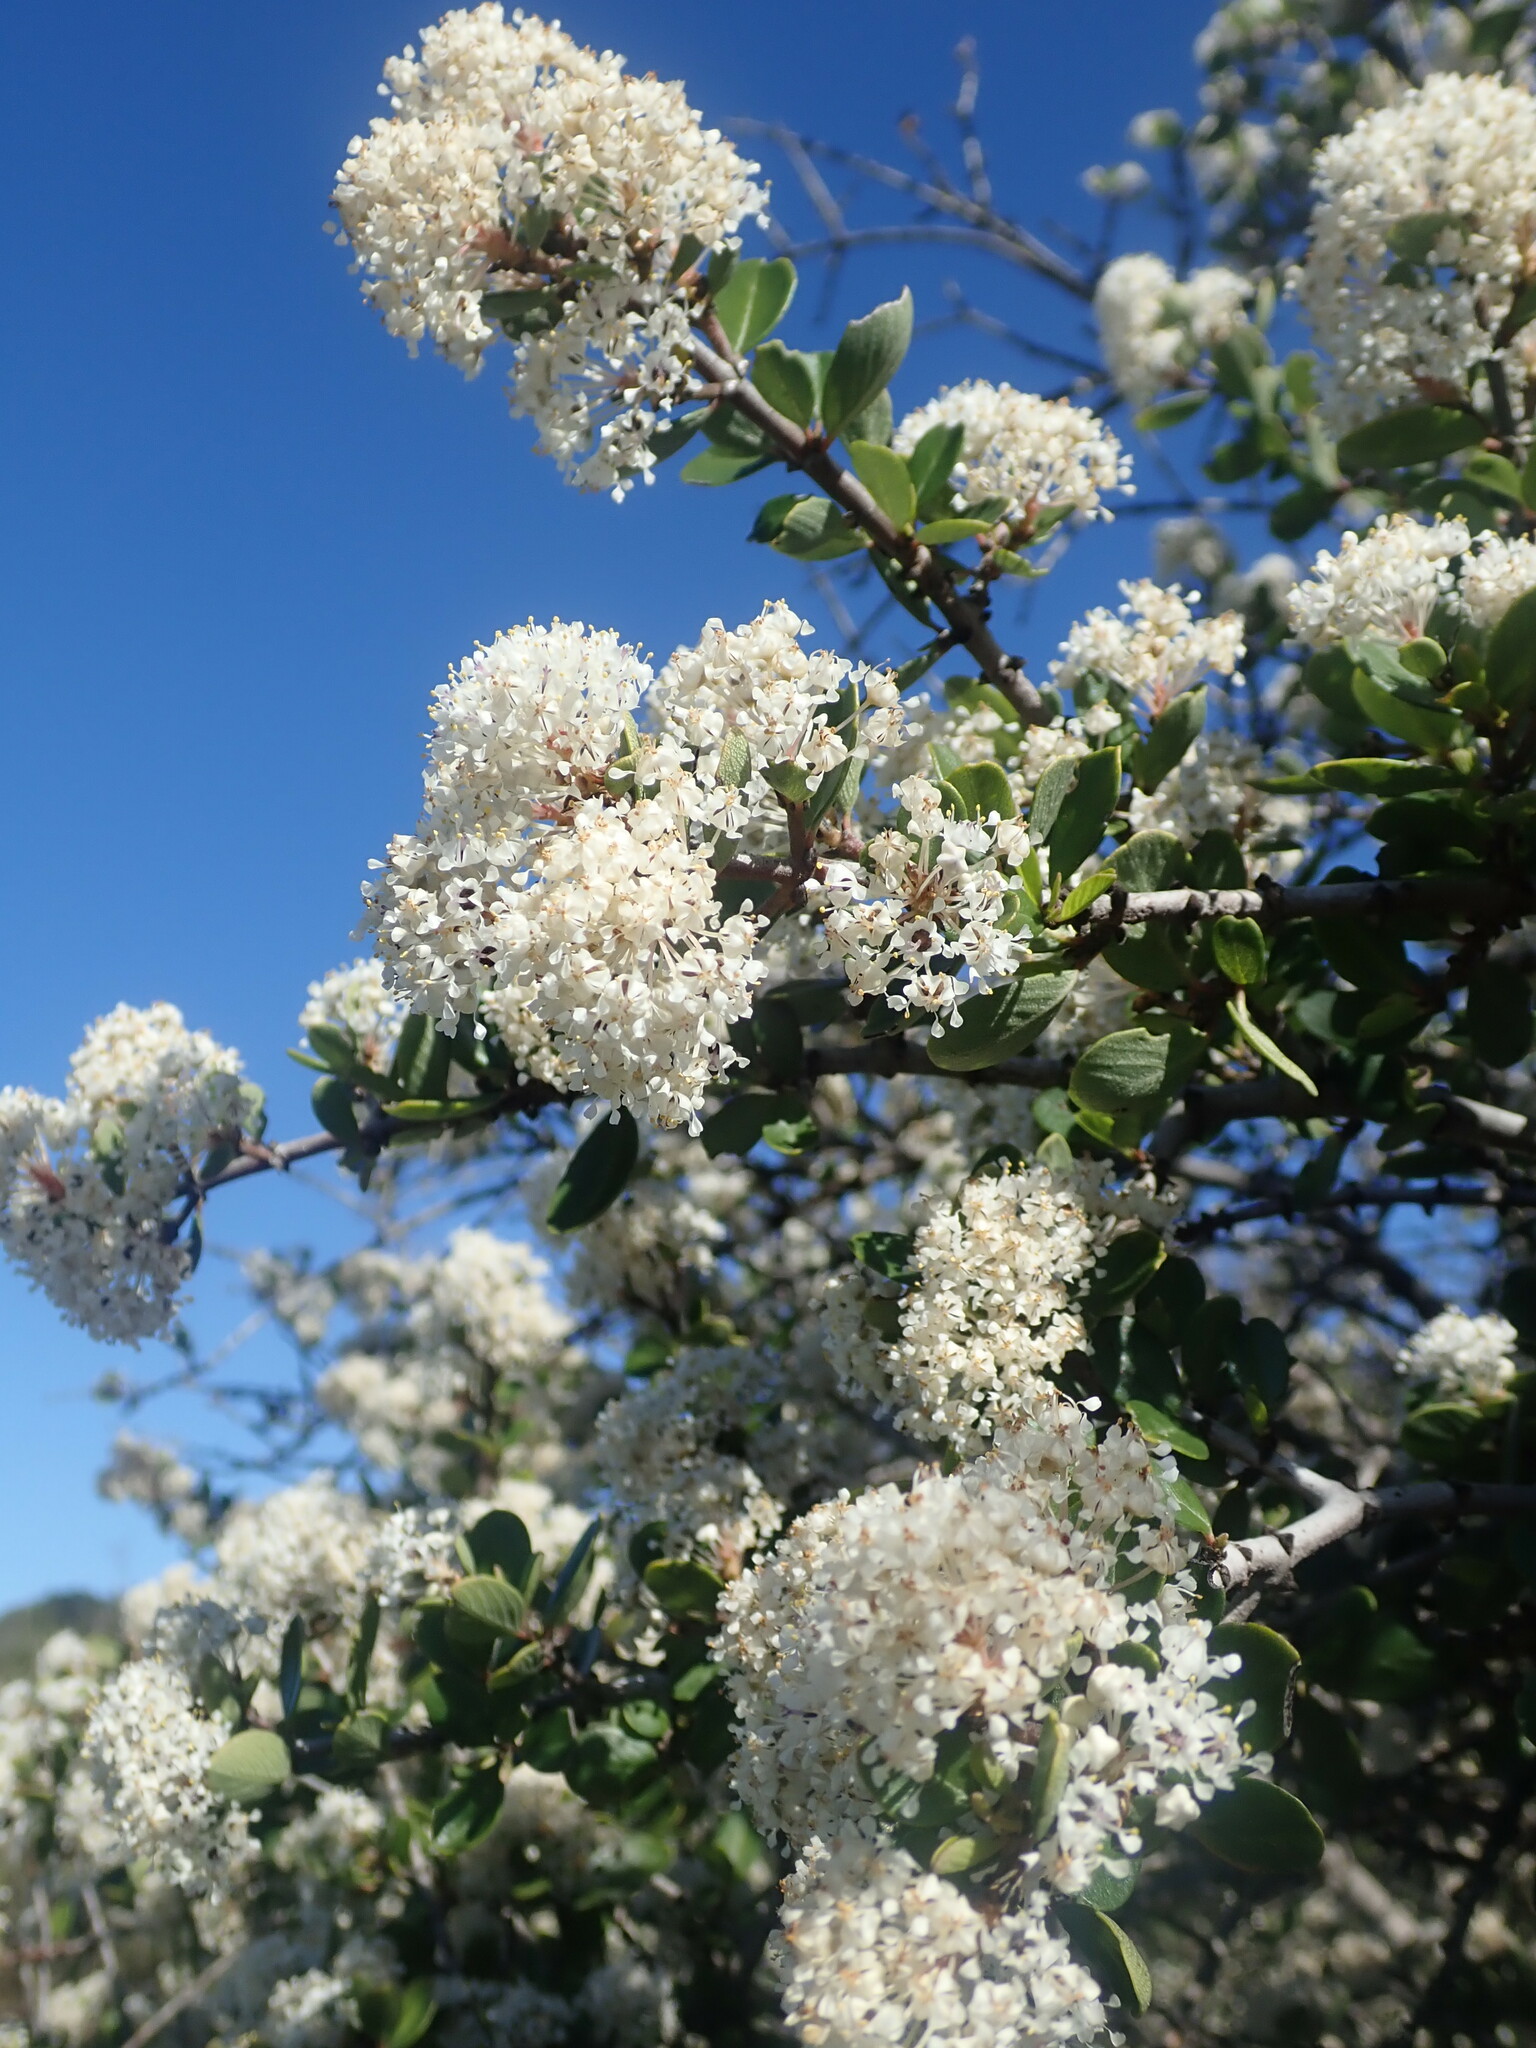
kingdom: Plantae
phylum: Tracheophyta
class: Magnoliopsida
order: Rosales
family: Rhamnaceae
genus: Ceanothus
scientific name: Ceanothus cuneatus
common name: Cuneate ceanothus
